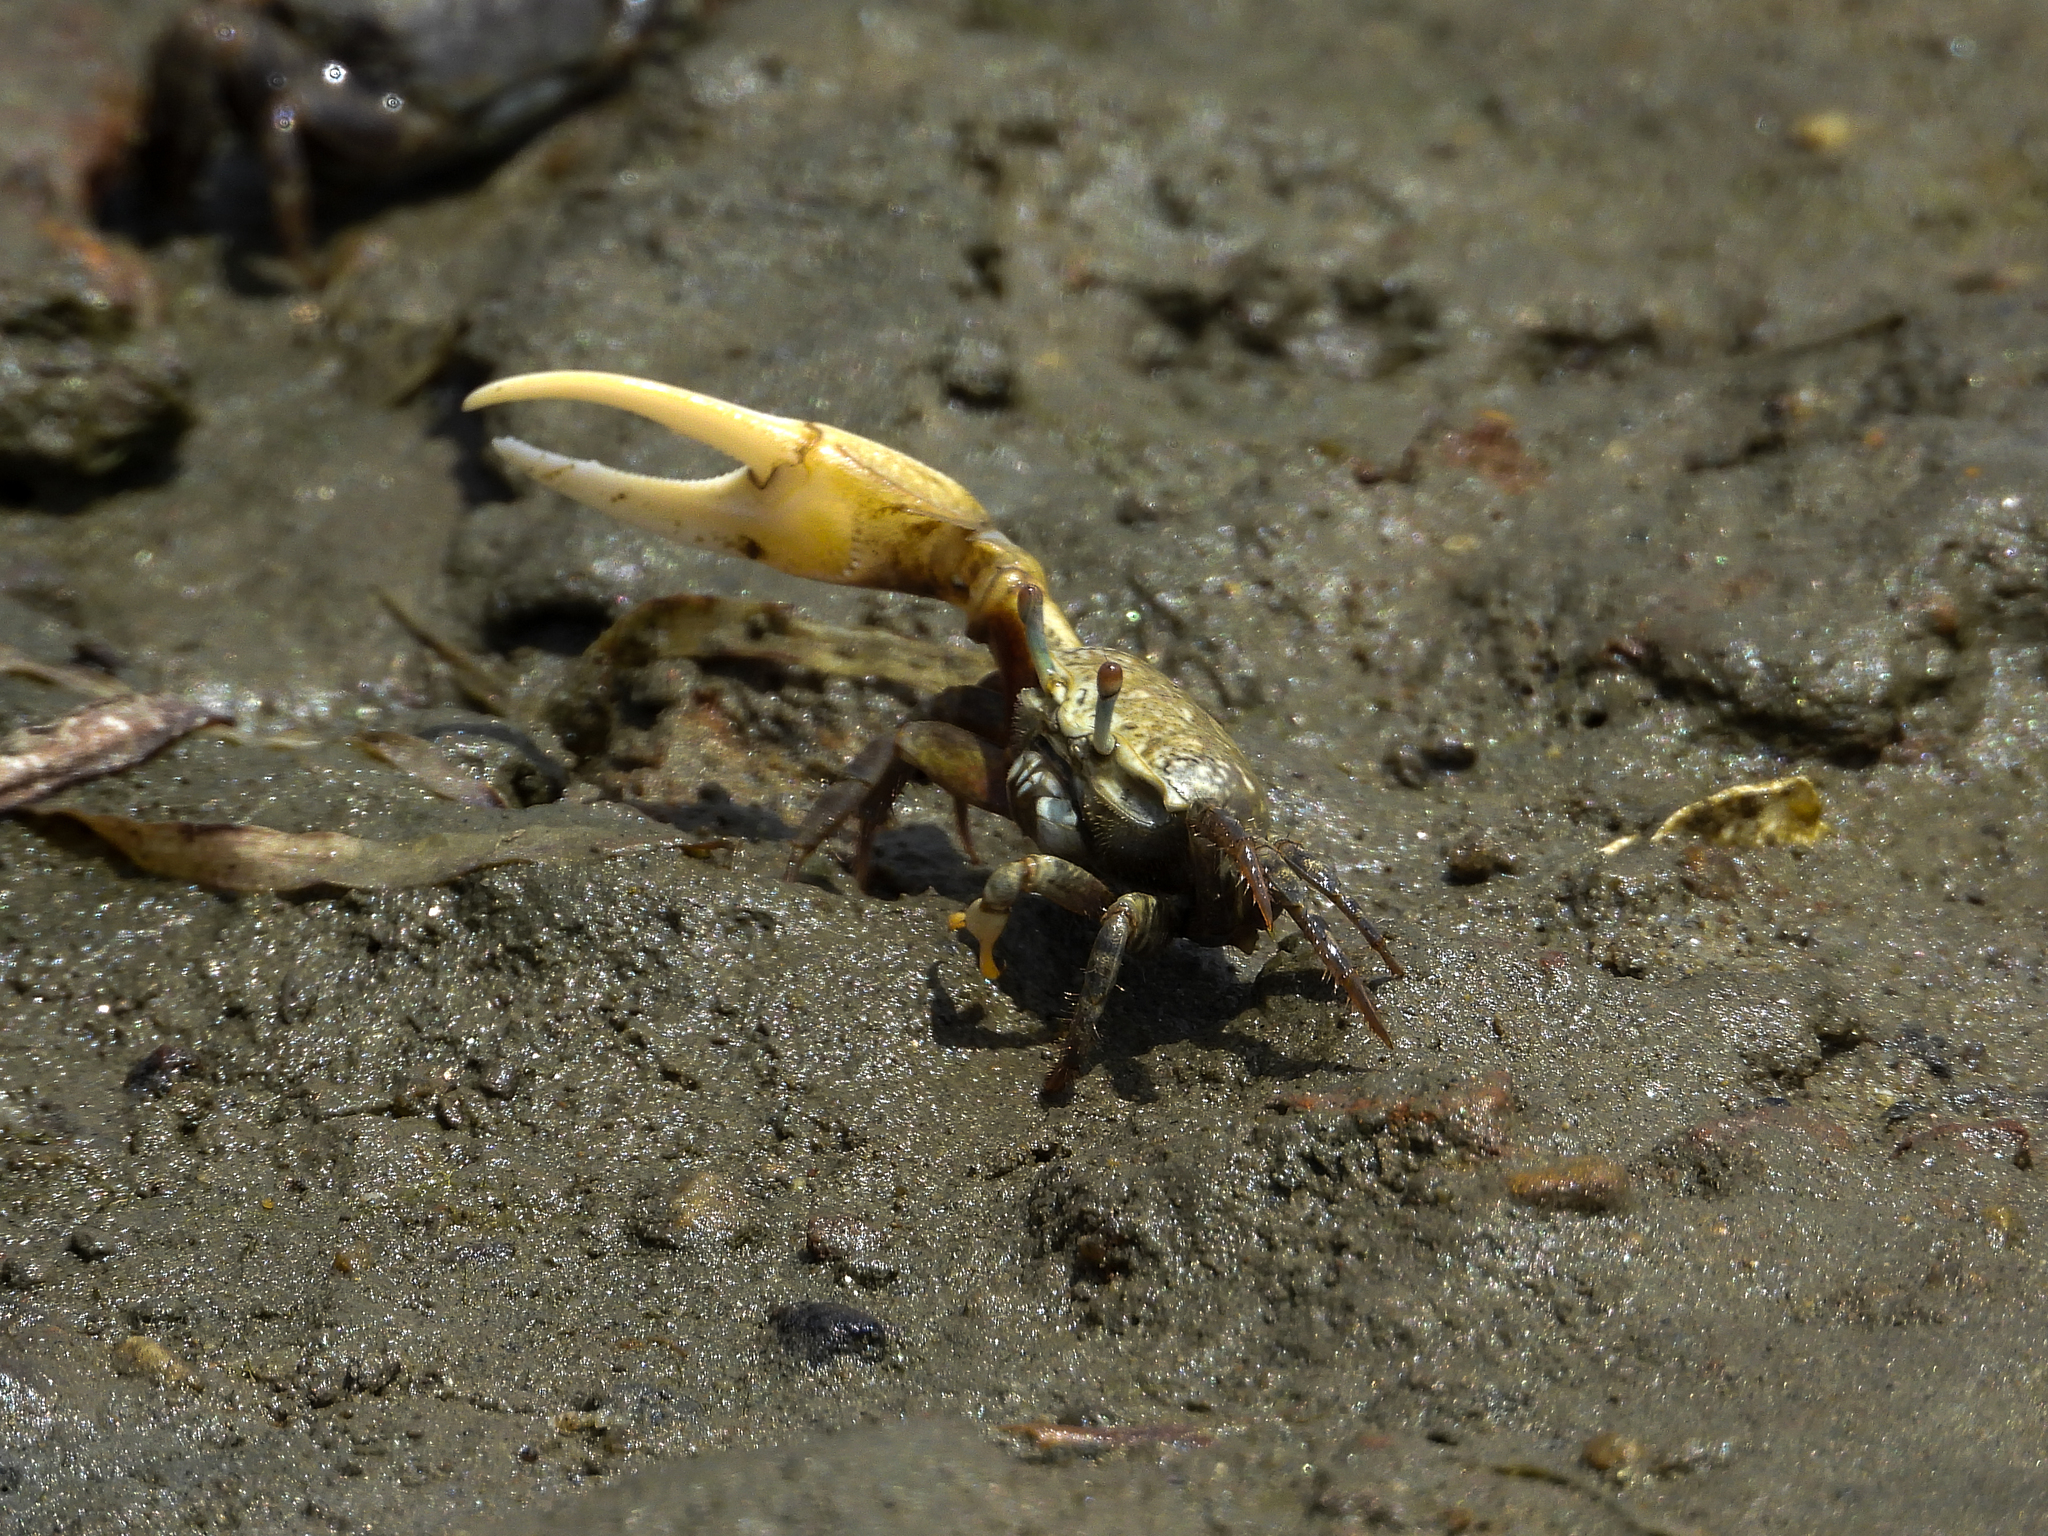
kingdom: Animalia
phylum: Arthropoda
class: Malacostraca
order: Decapoda
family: Ocypodidae
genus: Leptuca
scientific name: Leptuca crenulata
